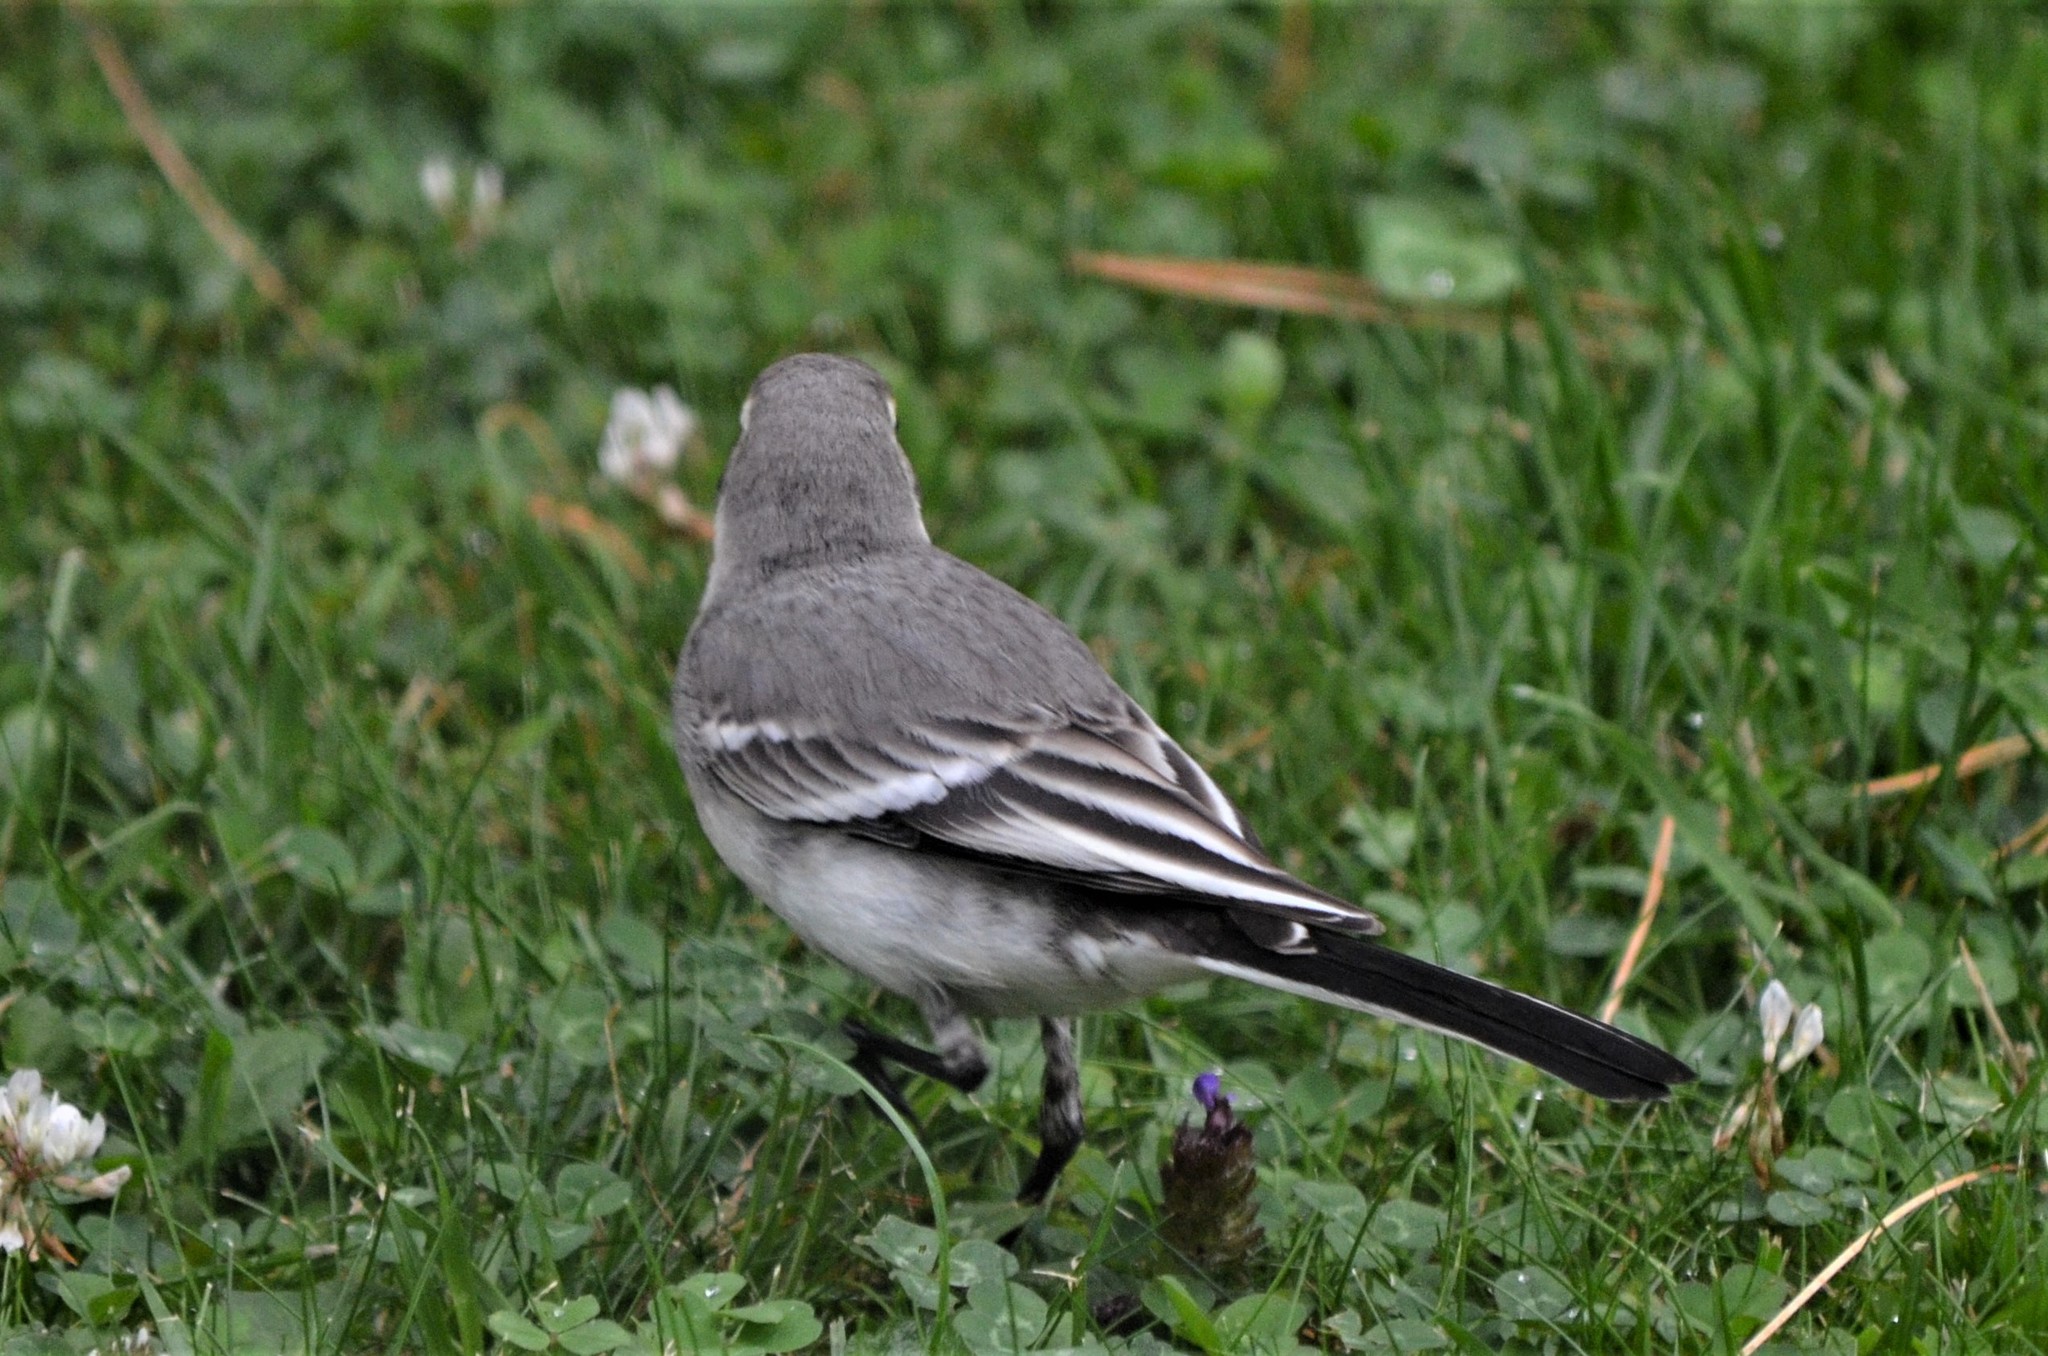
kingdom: Animalia
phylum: Chordata
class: Aves
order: Passeriformes
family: Motacillidae
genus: Motacilla
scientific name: Motacilla alba
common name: White wagtail
